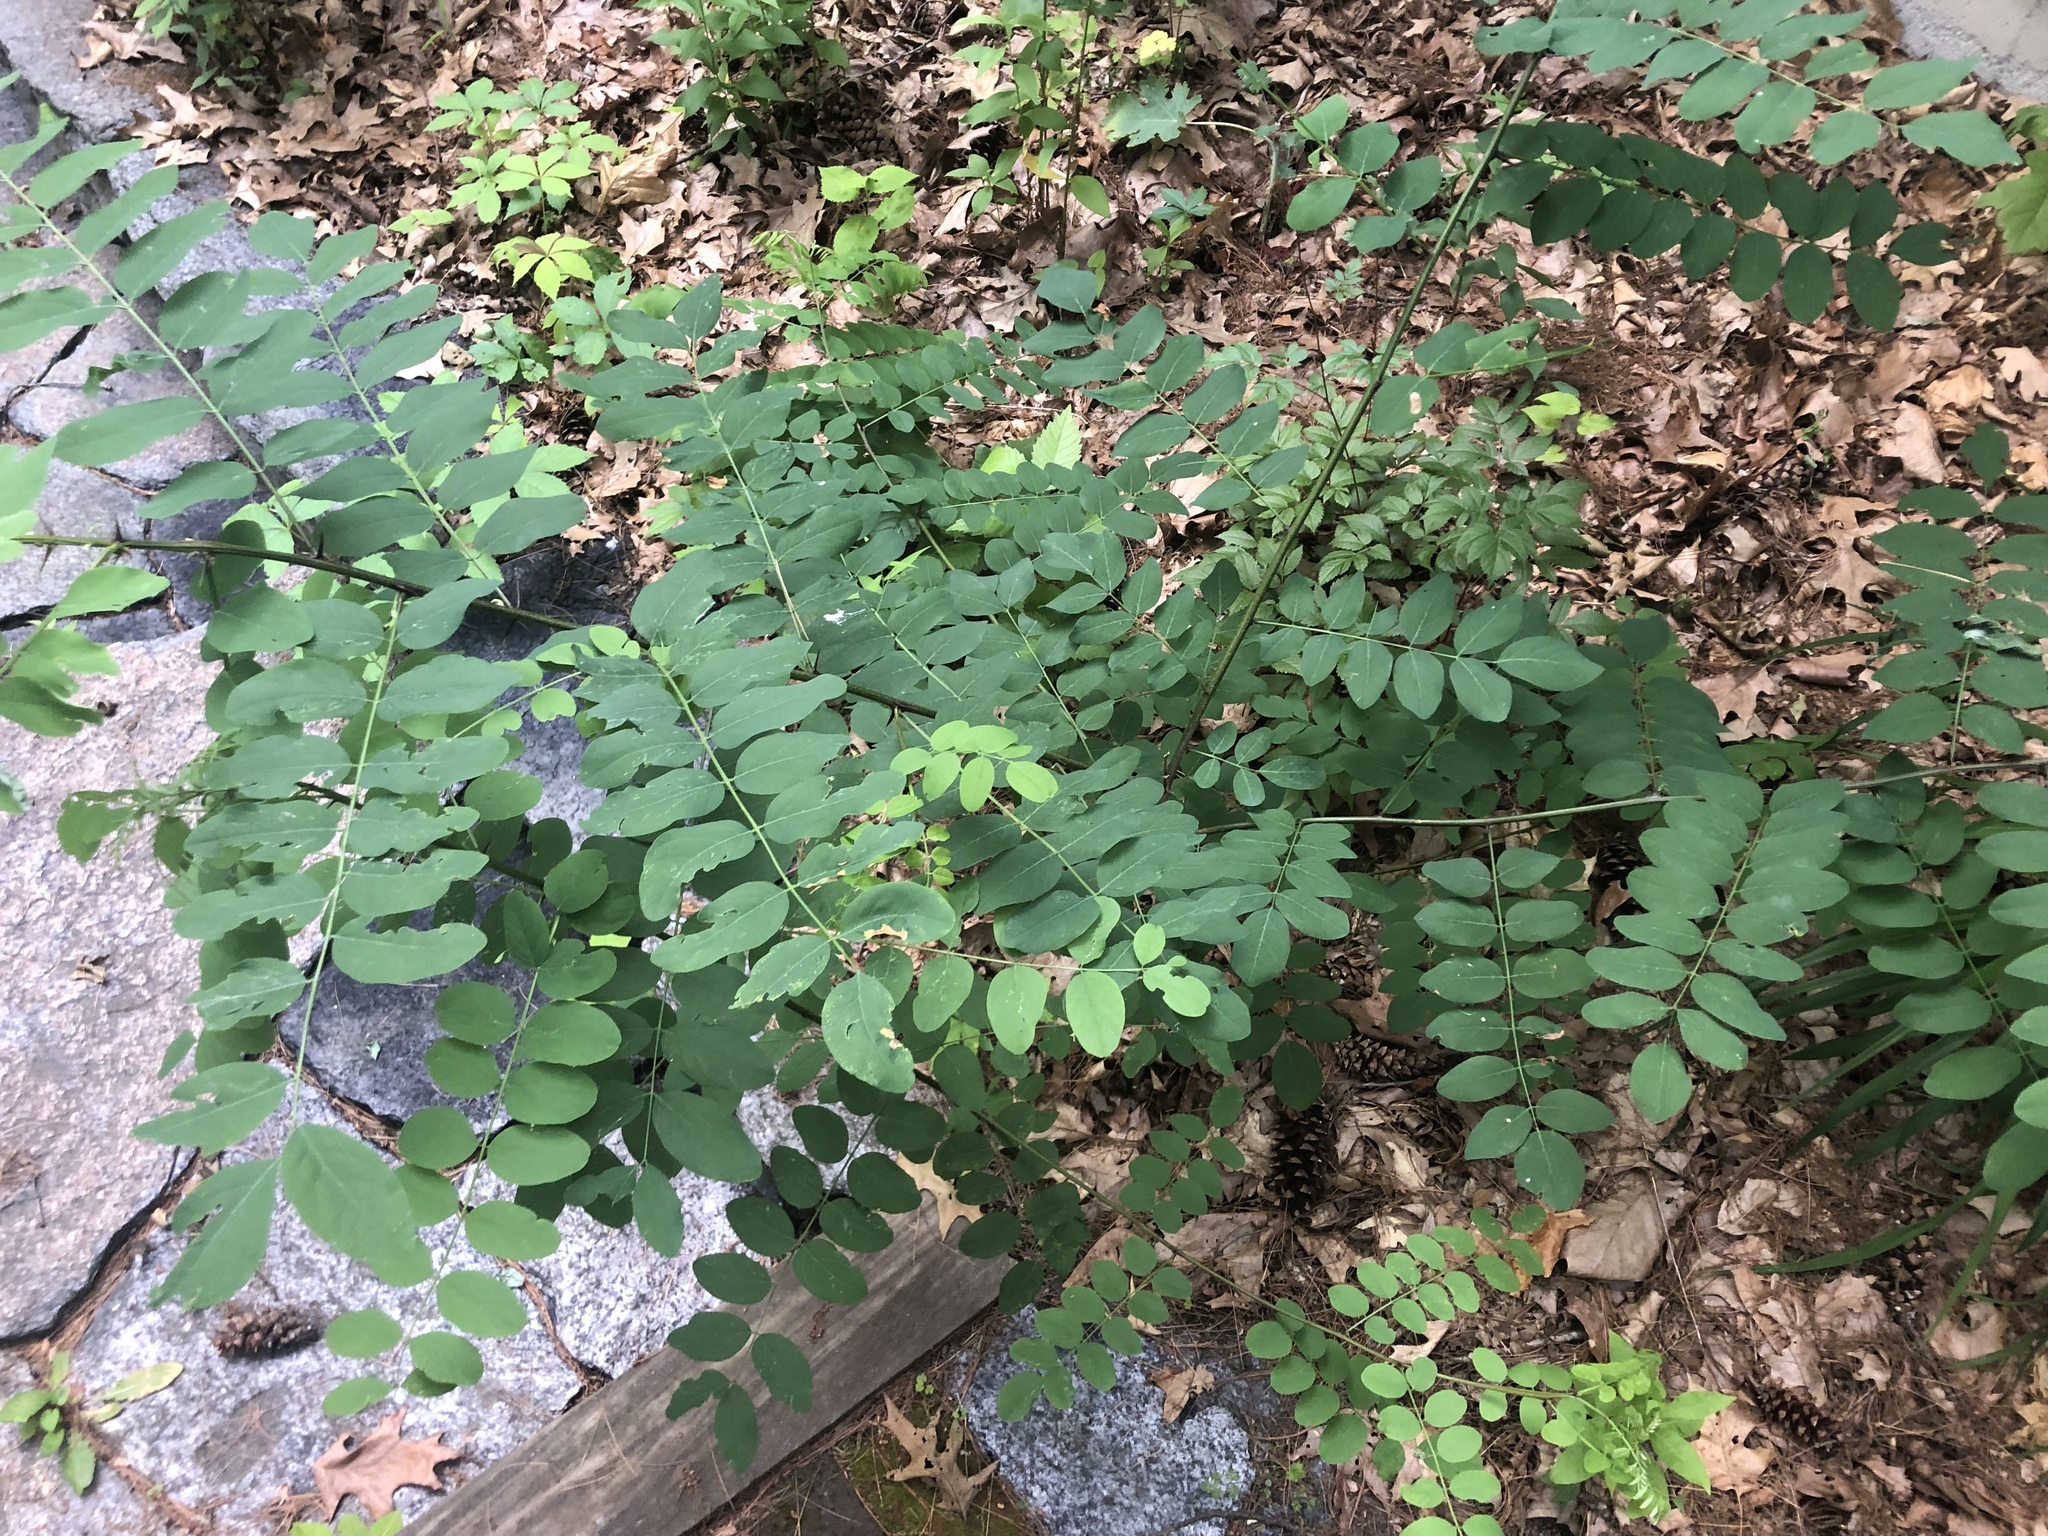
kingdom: Plantae
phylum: Tracheophyta
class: Magnoliopsida
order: Fabales
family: Fabaceae
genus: Robinia
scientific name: Robinia pseudoacacia
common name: Black locust
